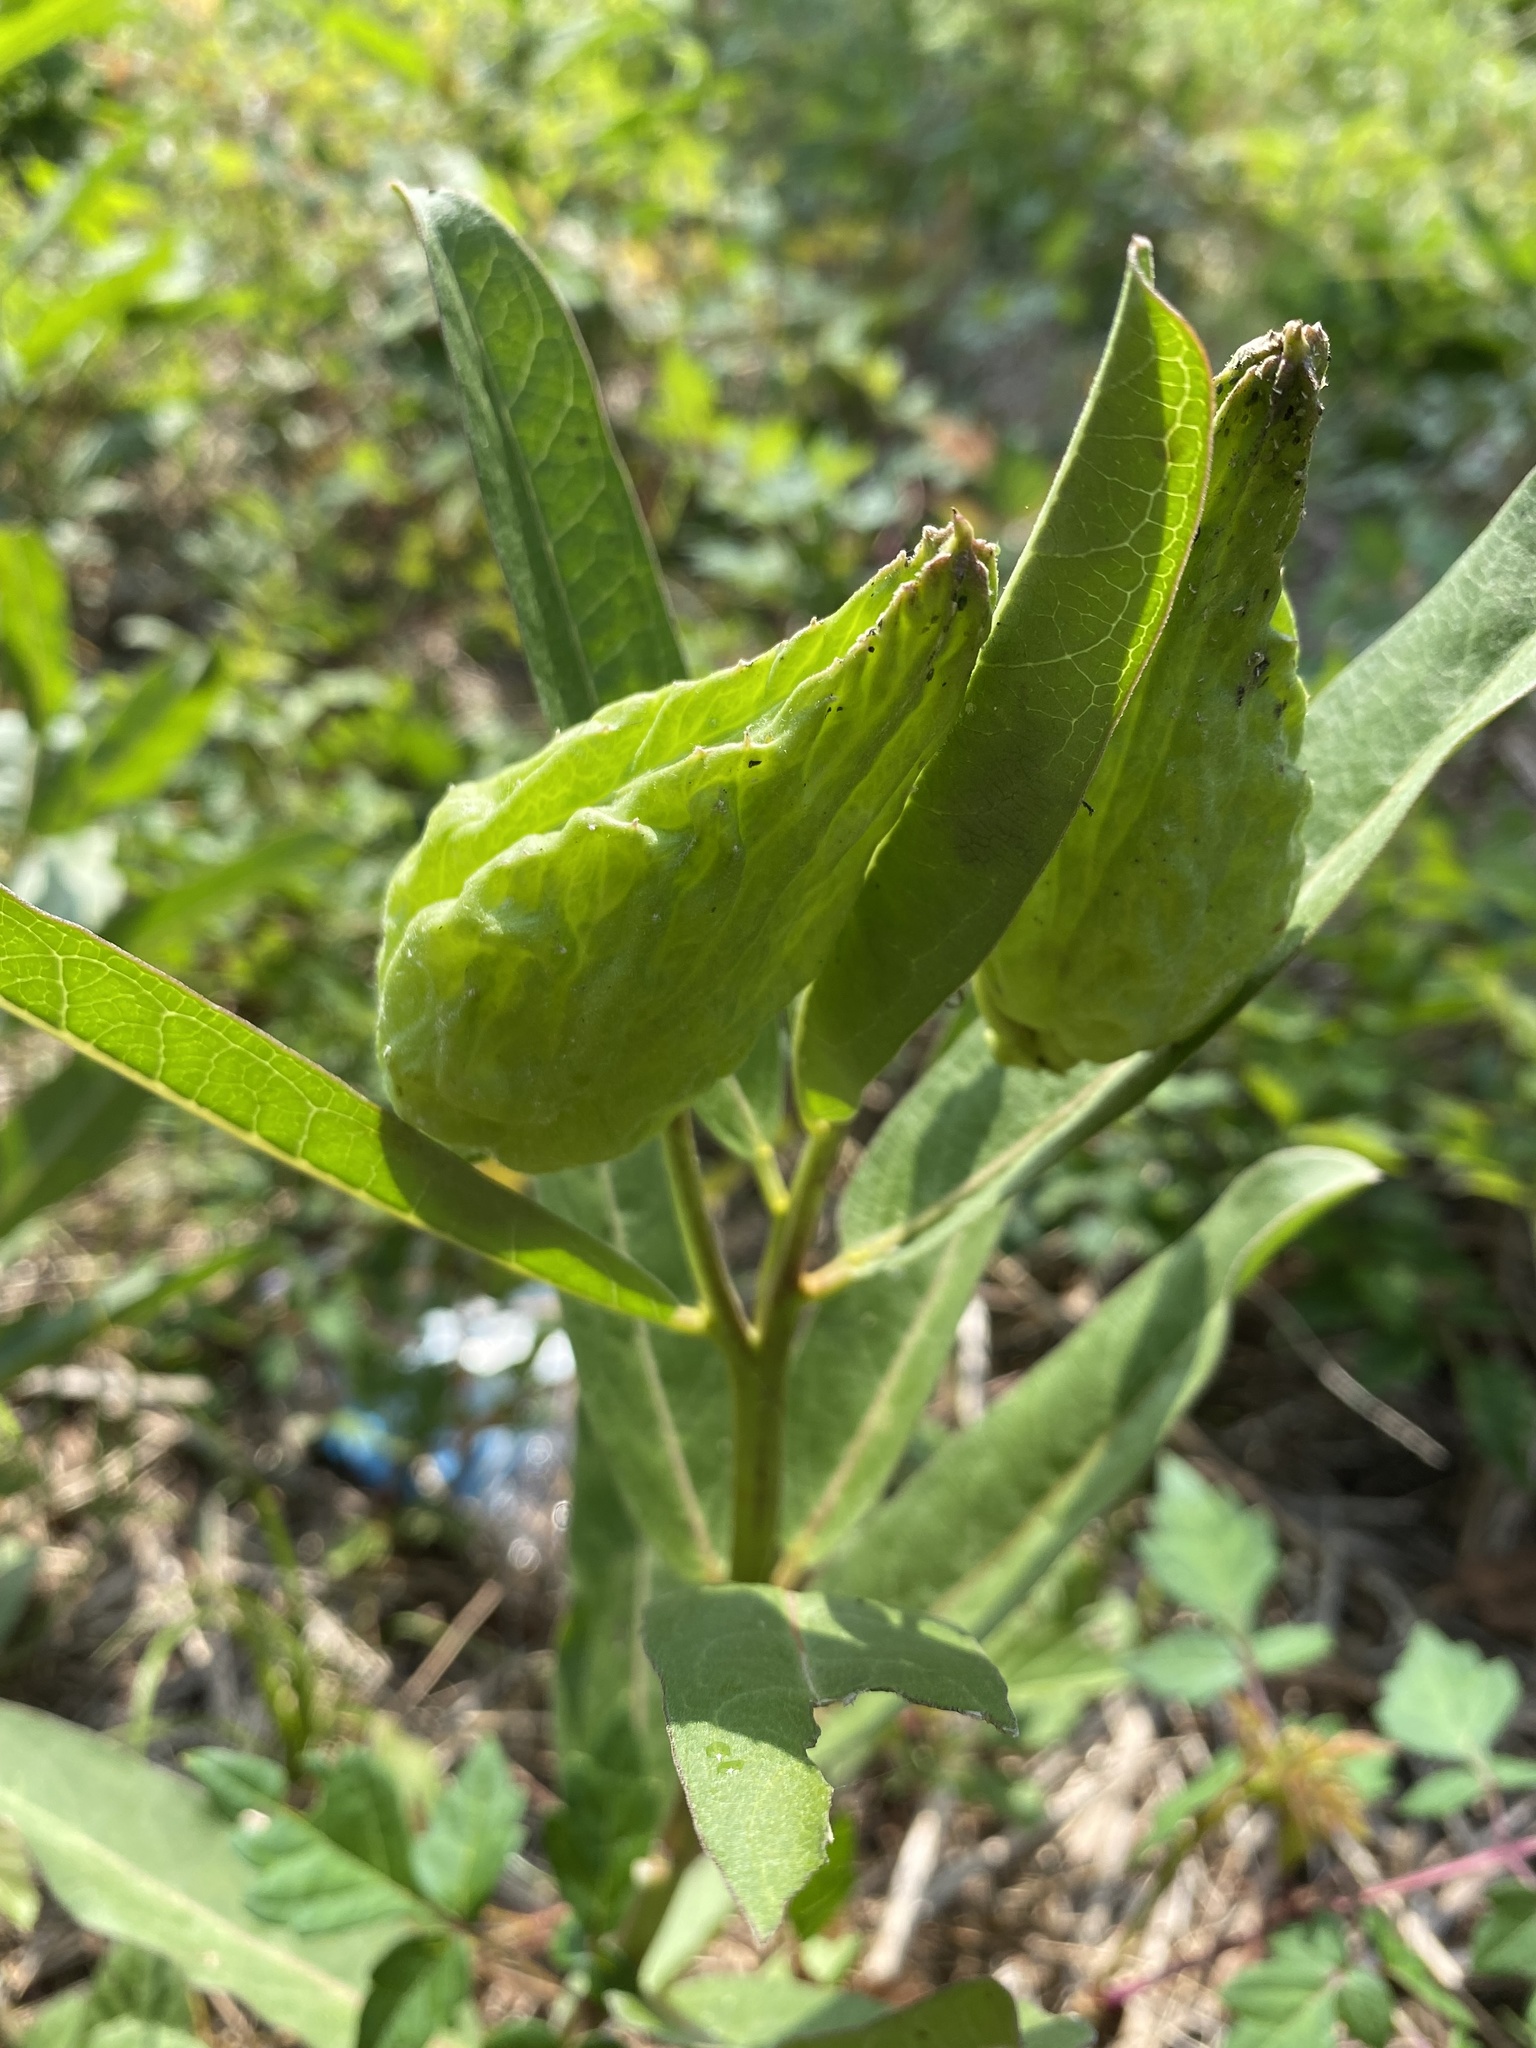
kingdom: Plantae
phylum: Tracheophyta
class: Magnoliopsida
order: Gentianales
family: Apocynaceae
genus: Asclepias
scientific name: Asclepias viridis
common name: Antelope-horns
